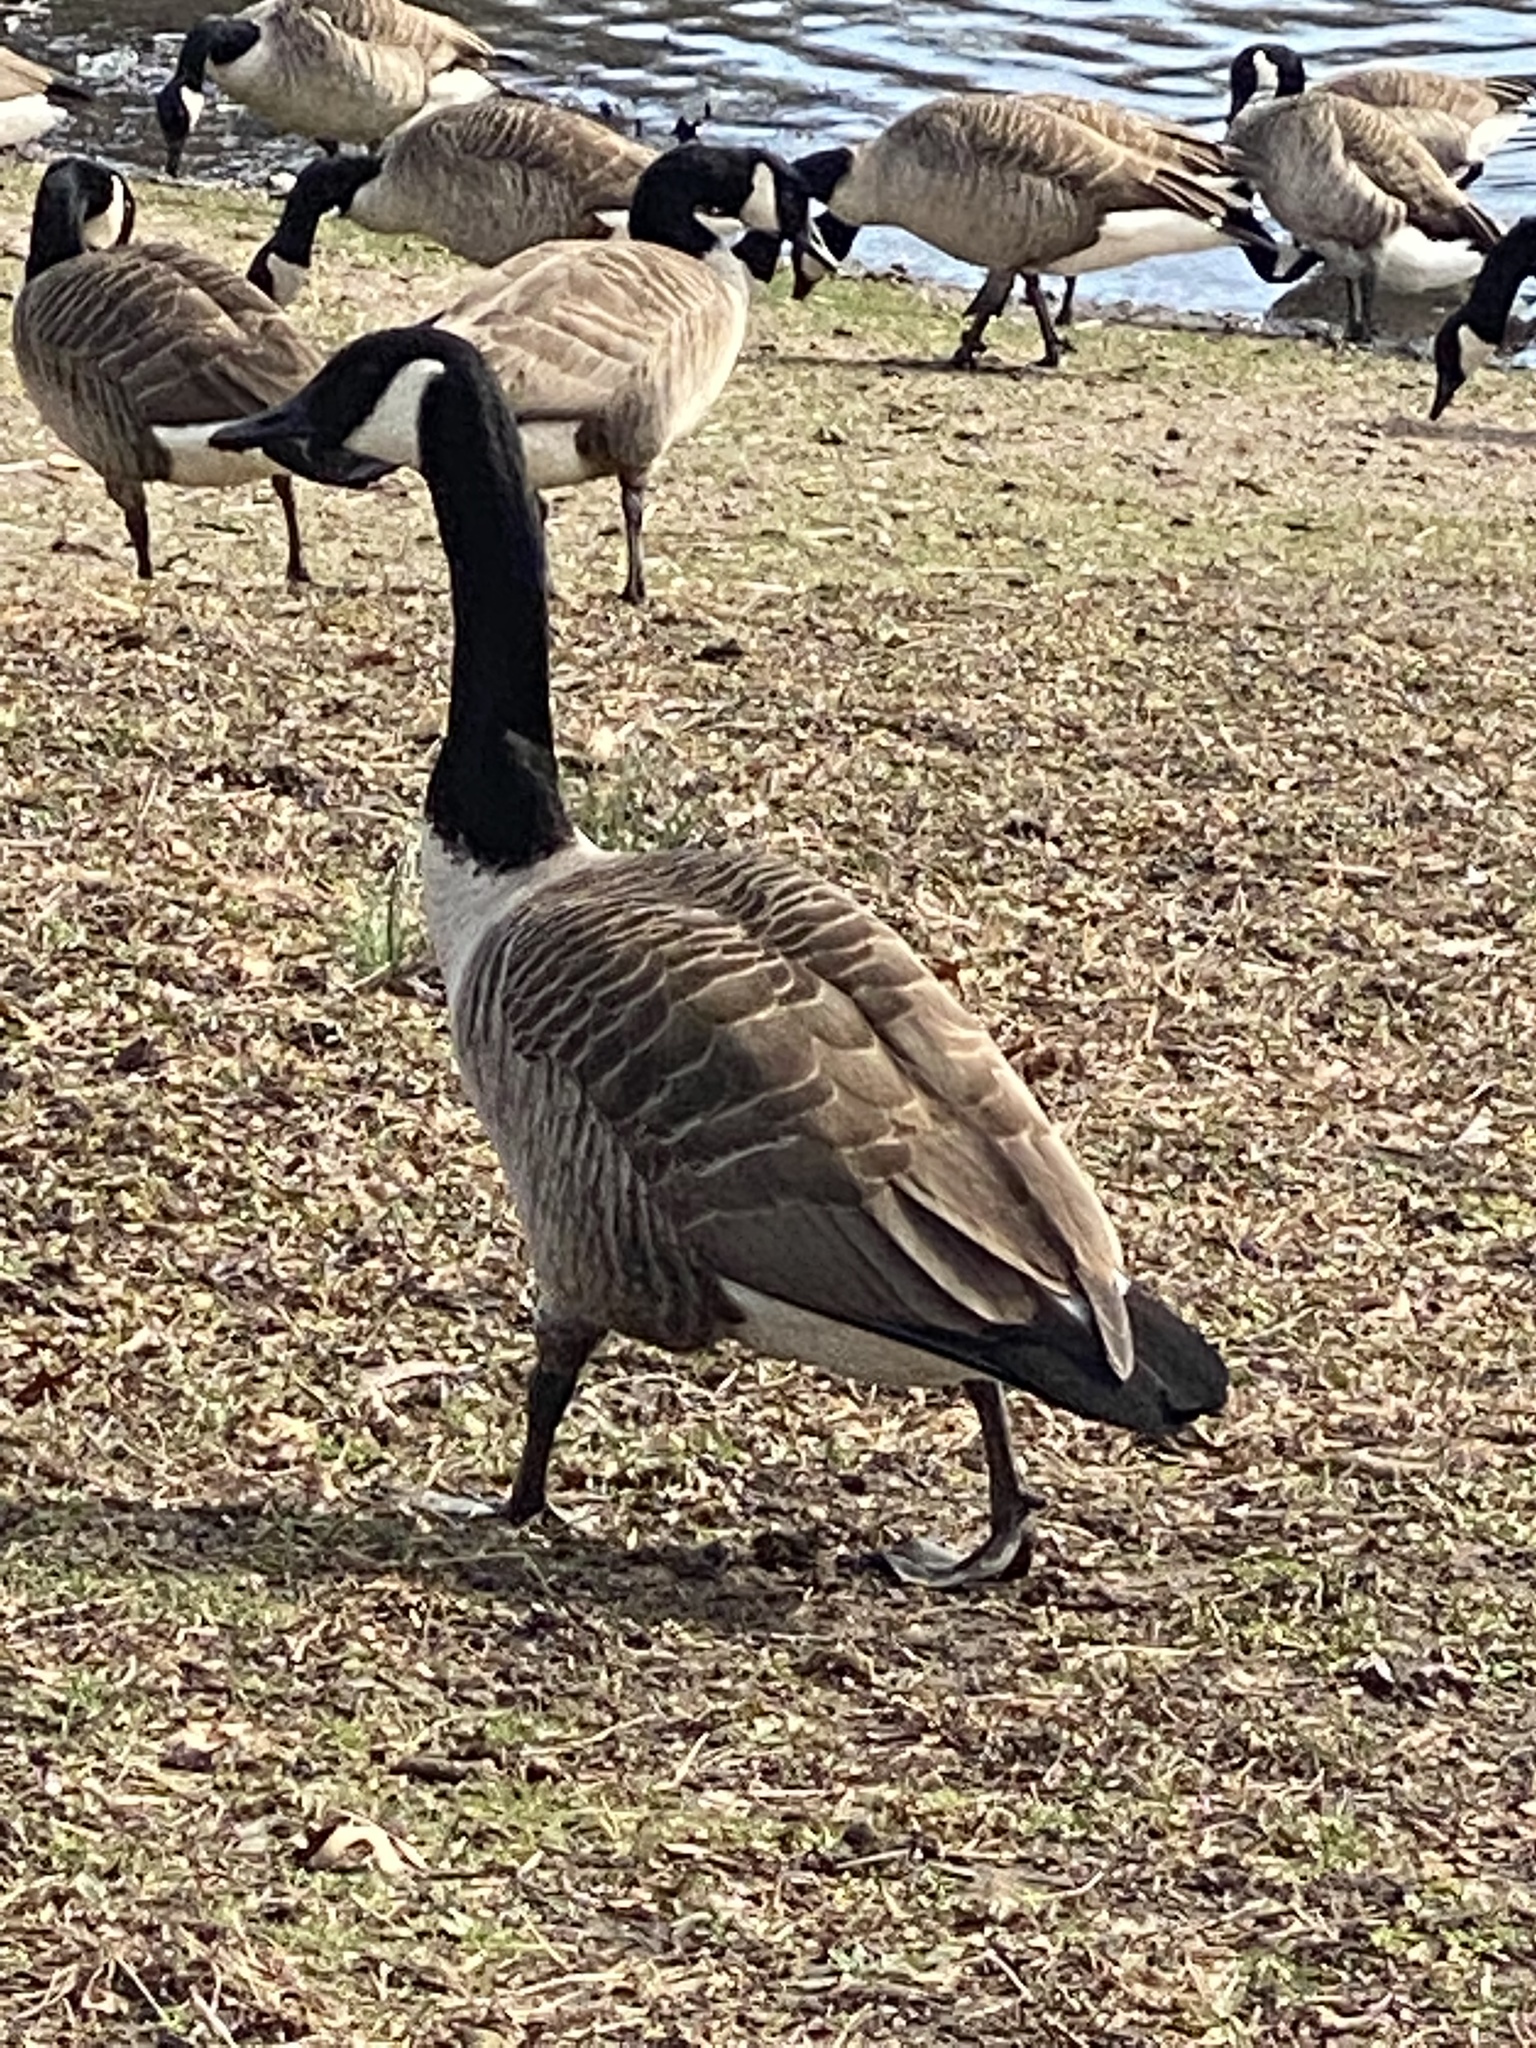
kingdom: Animalia
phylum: Chordata
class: Aves
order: Anseriformes
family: Anatidae
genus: Branta
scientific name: Branta canadensis
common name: Canada goose
